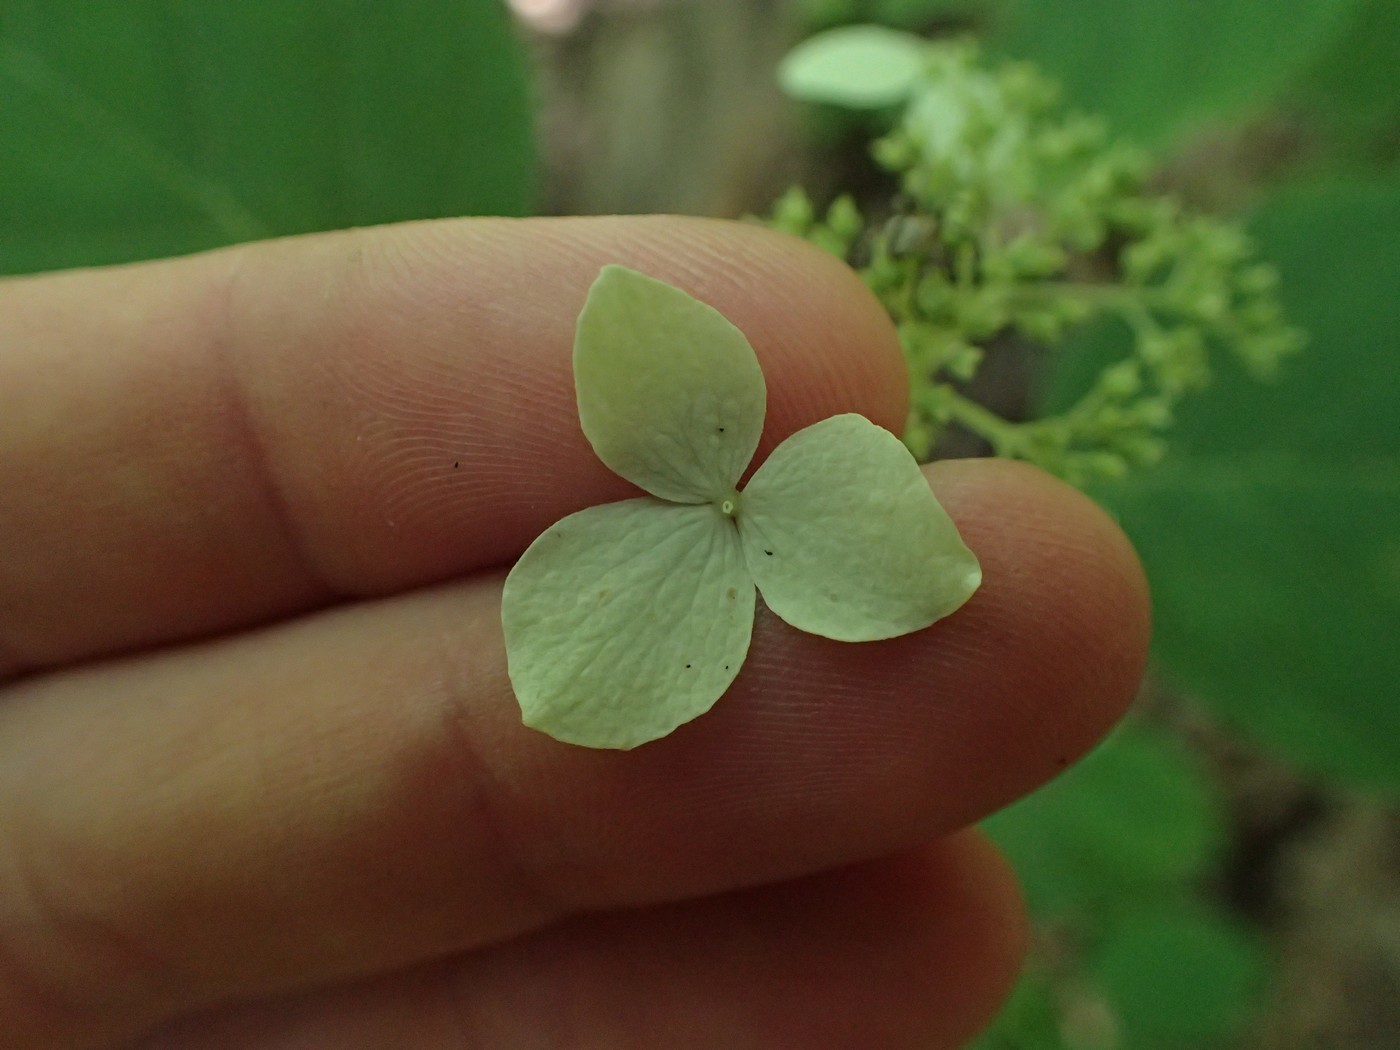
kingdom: Plantae
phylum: Tracheophyta
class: Magnoliopsida
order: Cornales
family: Hydrangeaceae
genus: Hydrangea
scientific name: Hydrangea radiata
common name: Silverleaf hydrangea
